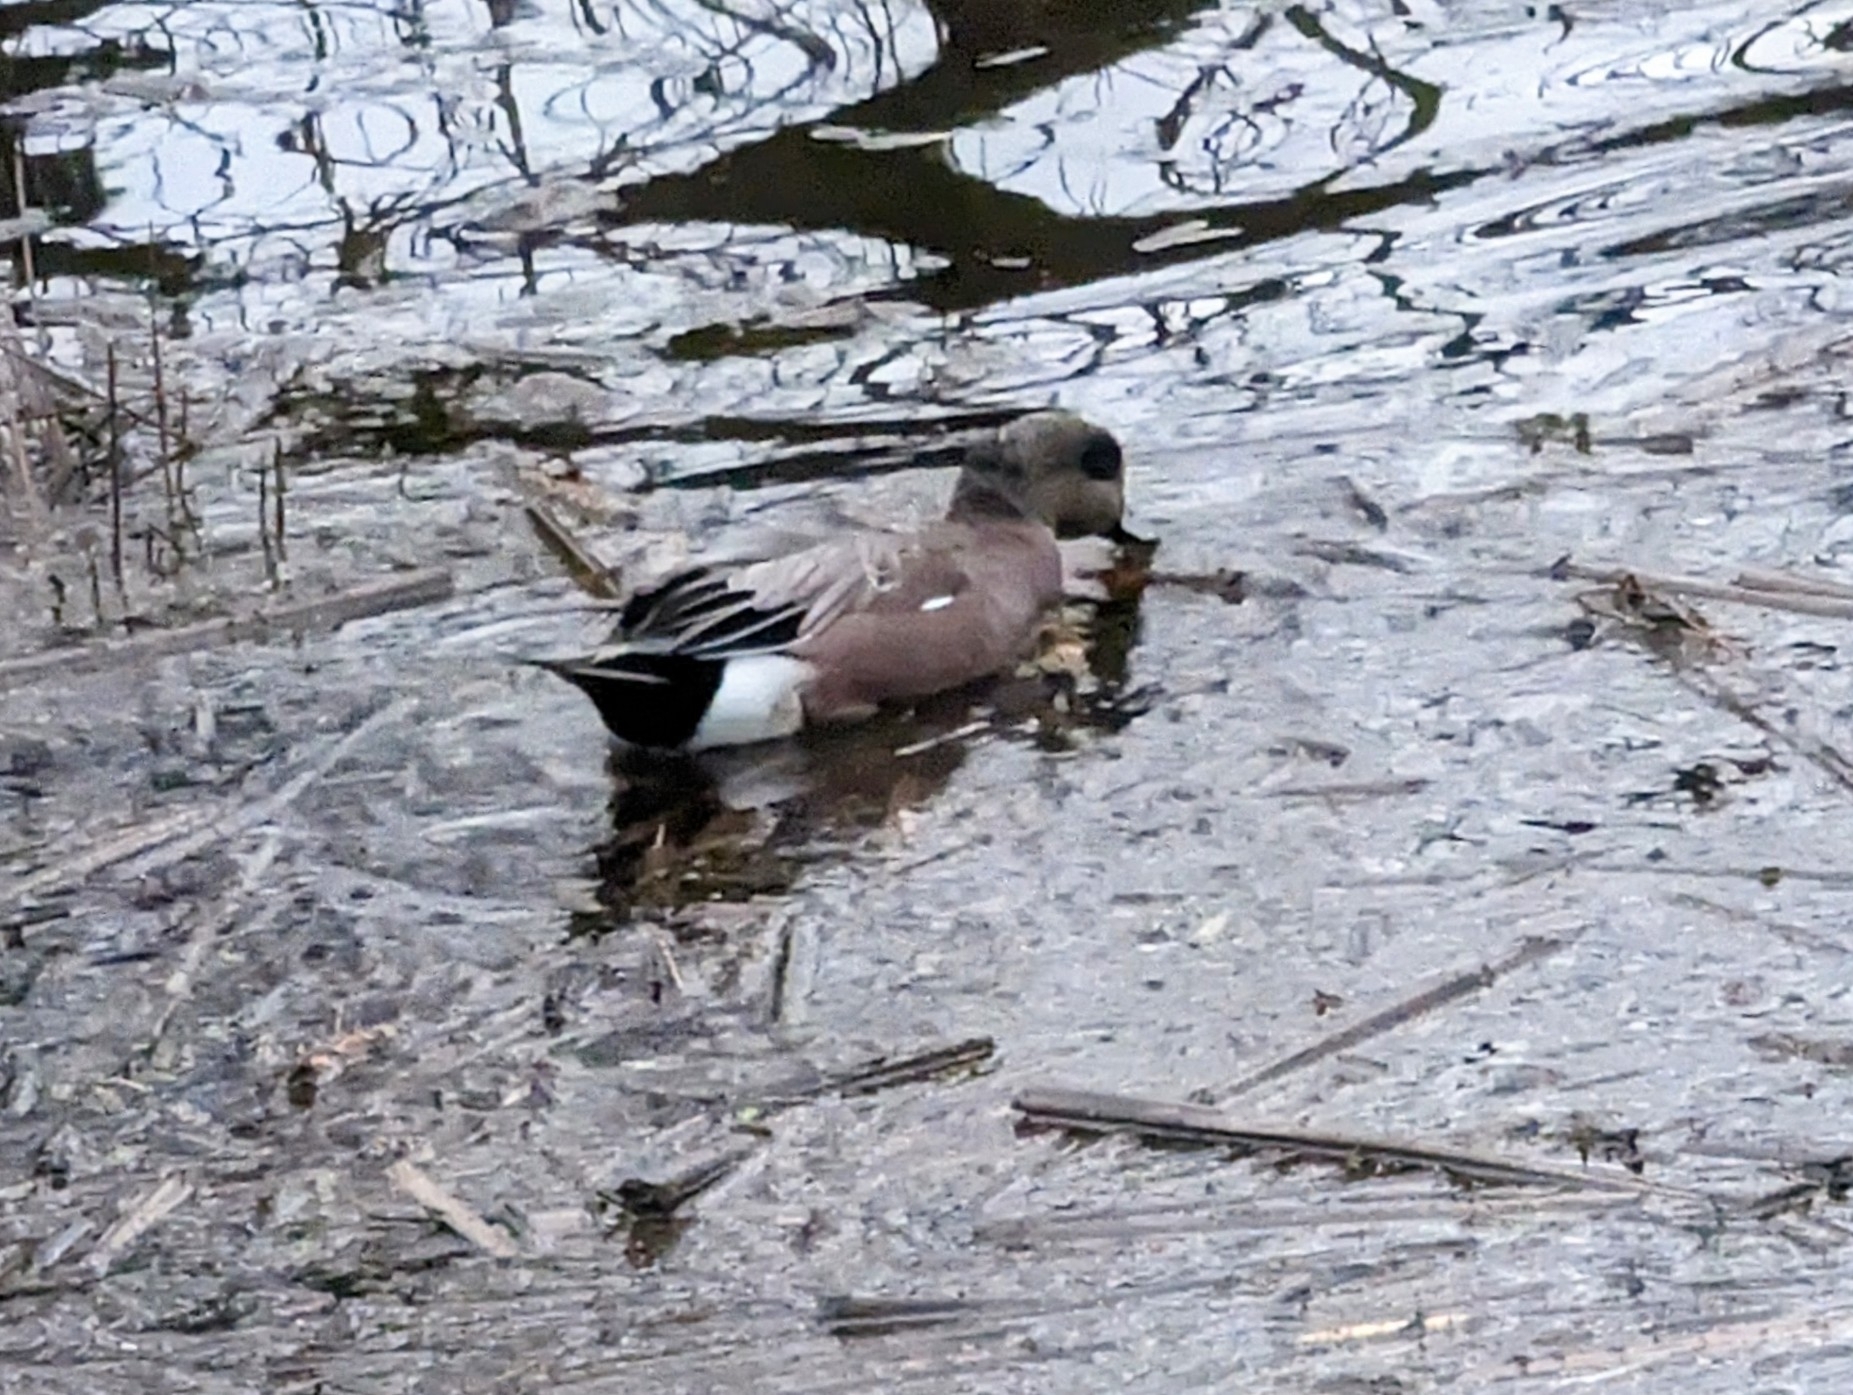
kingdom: Animalia
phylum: Chordata
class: Aves
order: Anseriformes
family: Anatidae
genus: Mareca
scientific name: Mareca americana
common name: American wigeon
